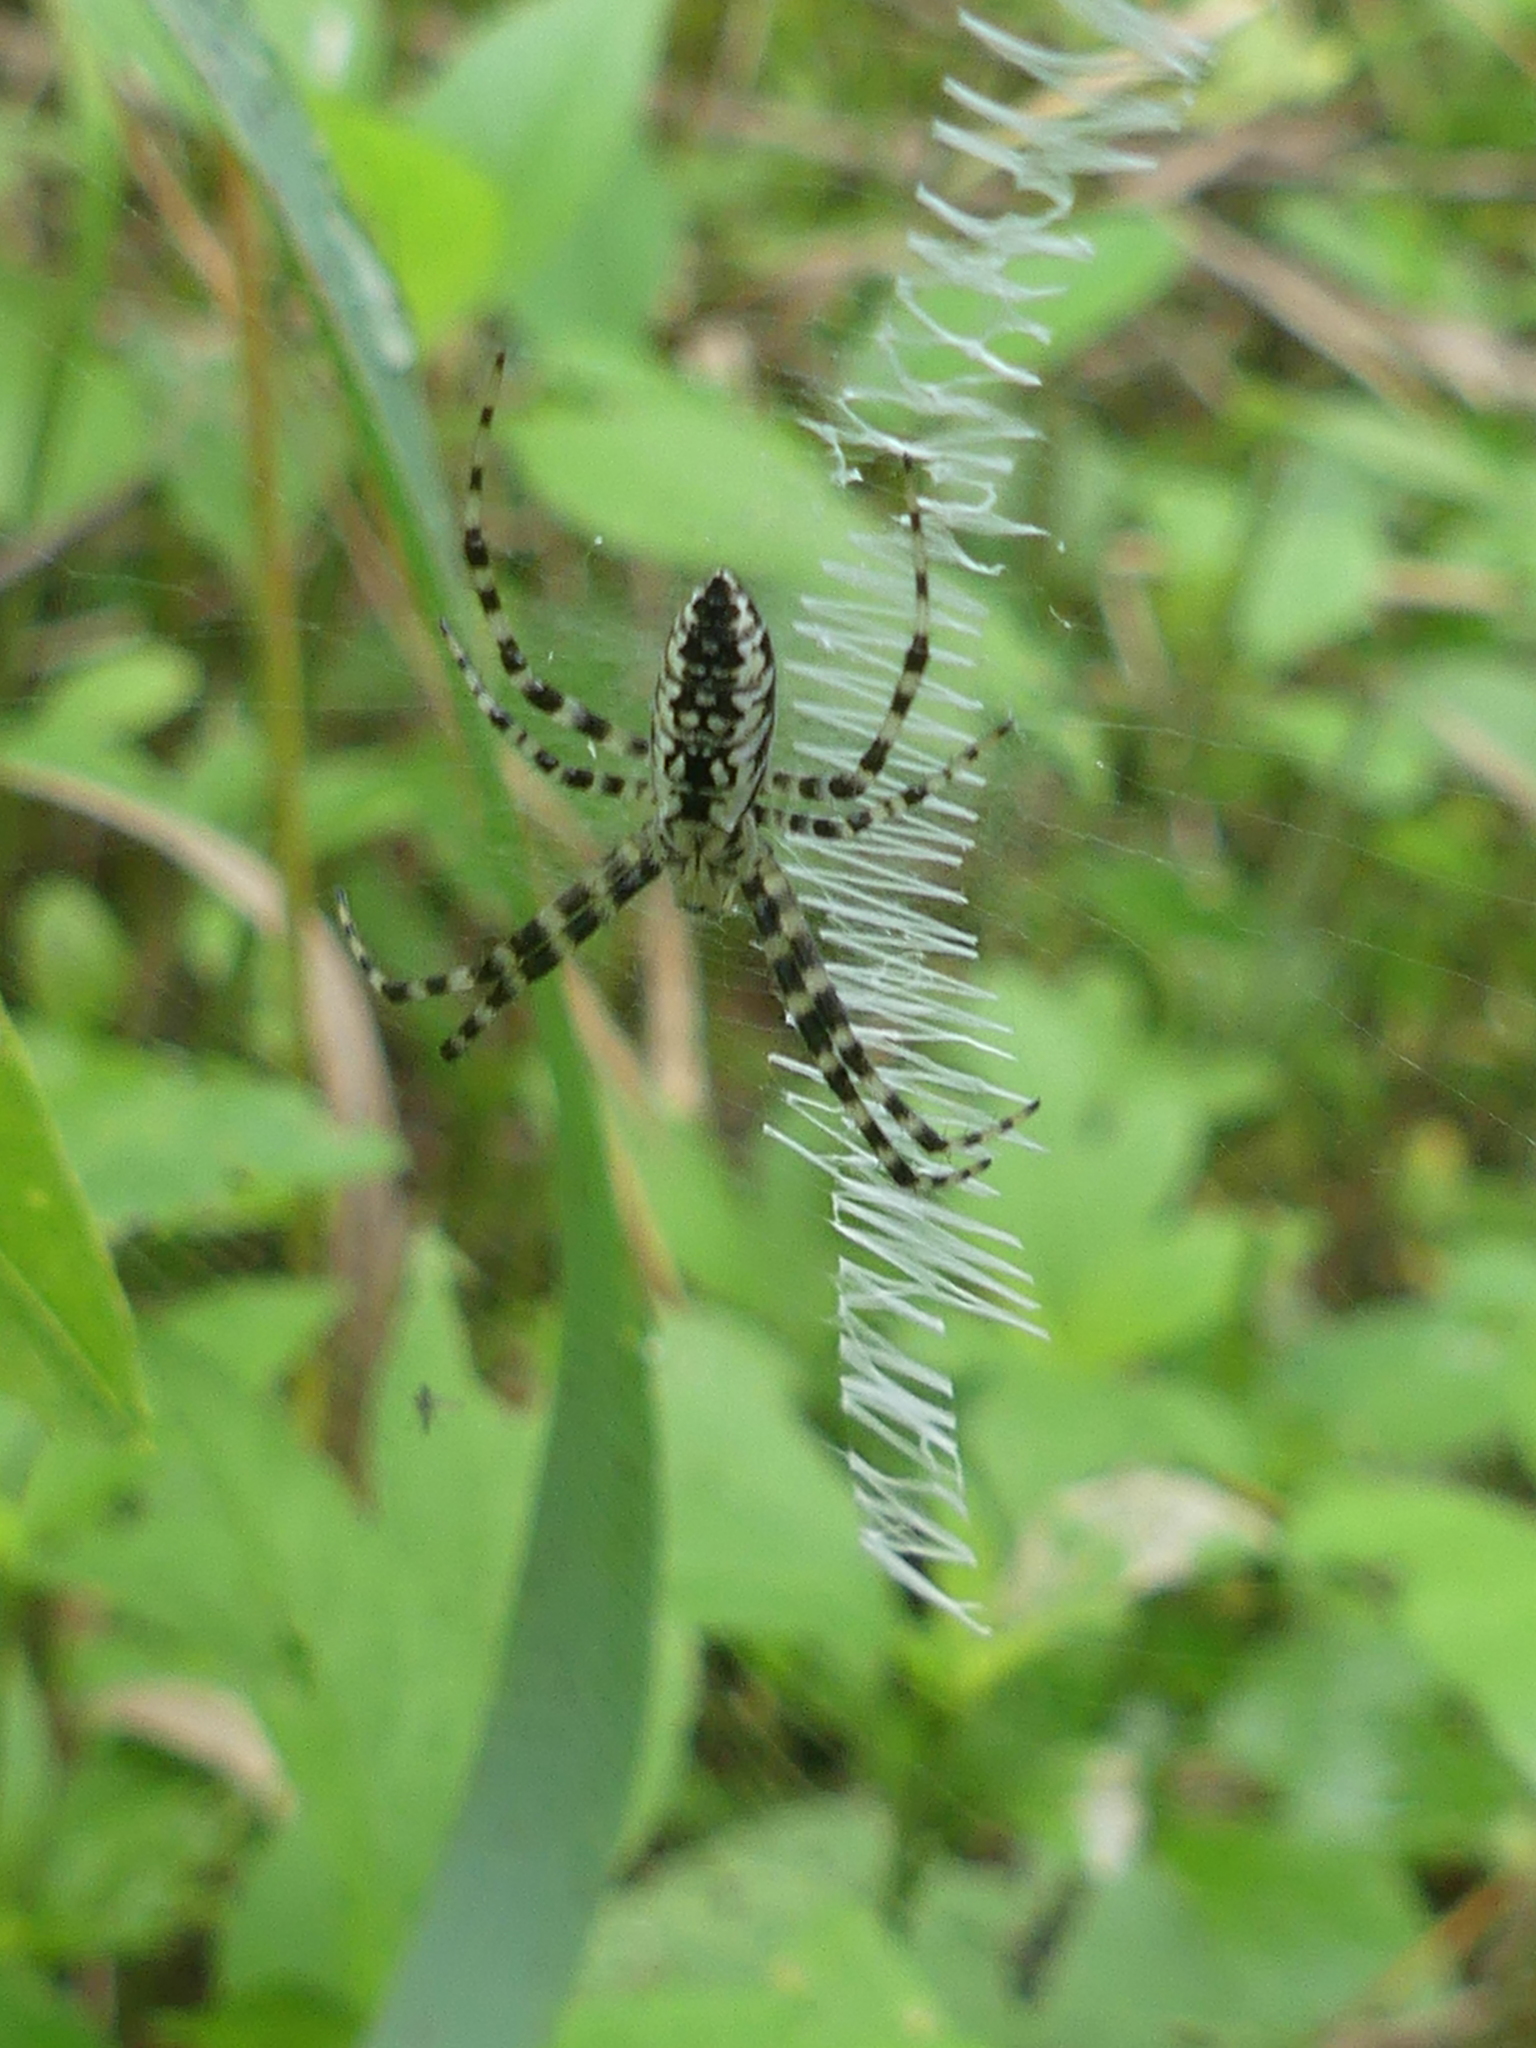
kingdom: Animalia
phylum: Arthropoda
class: Arachnida
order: Araneae
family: Araneidae
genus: Argiope
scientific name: Argiope aurantia
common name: Orb weavers
